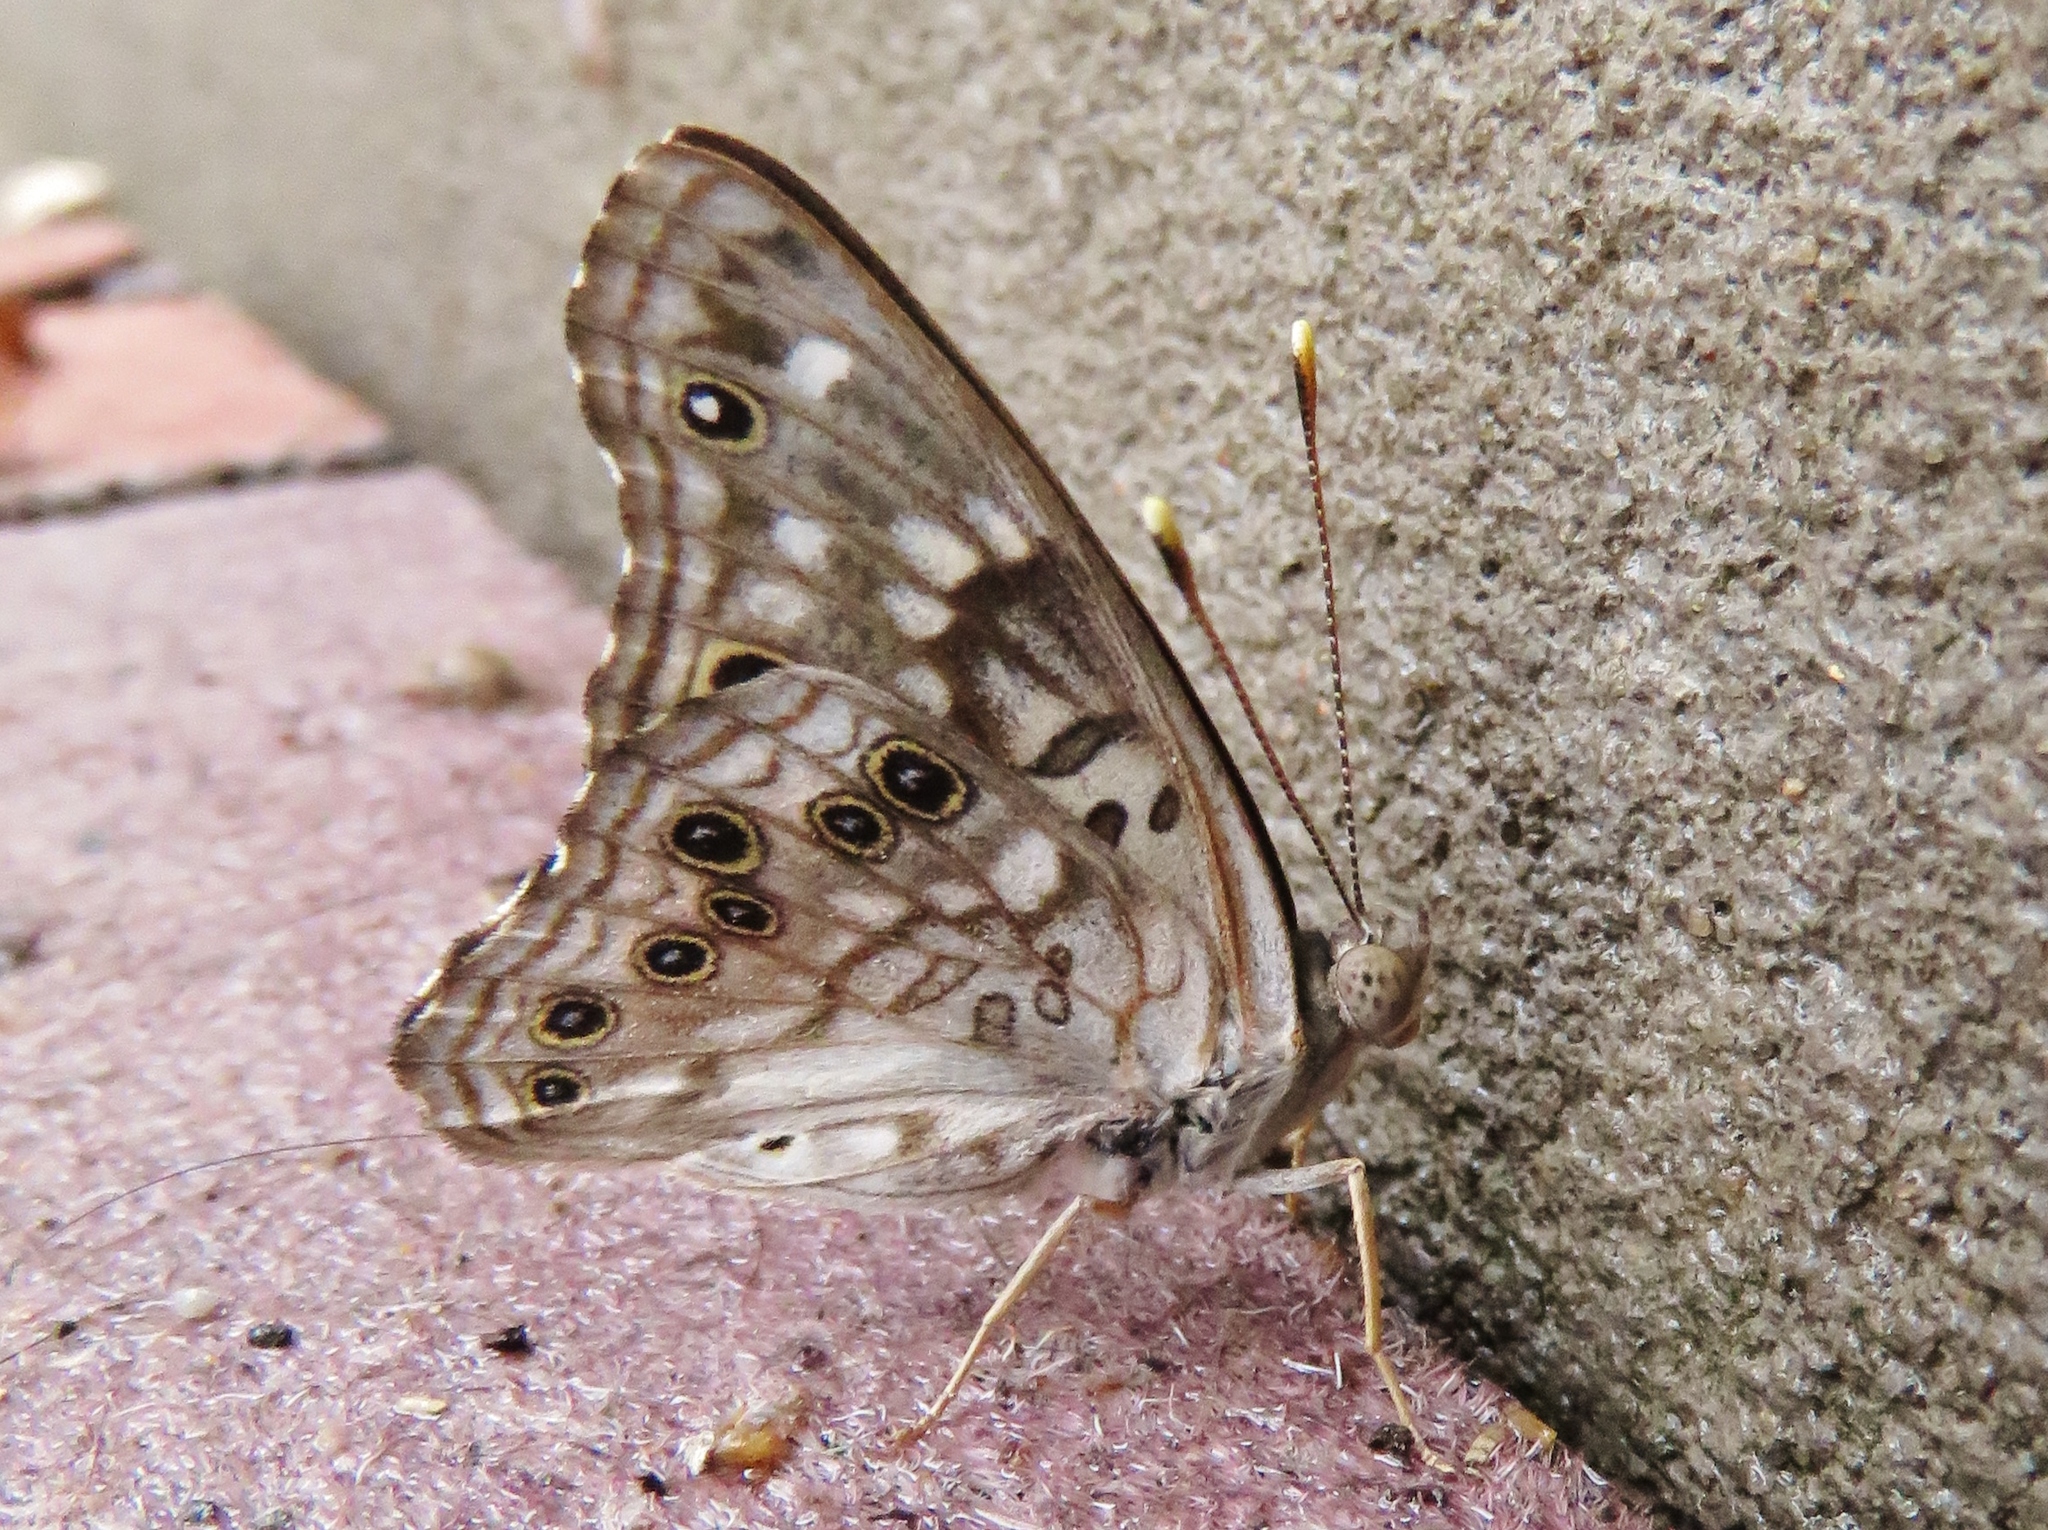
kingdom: Animalia
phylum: Arthropoda
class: Insecta
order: Lepidoptera
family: Nymphalidae
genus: Asterocampa
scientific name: Asterocampa celtis
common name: Hackberry emperor
